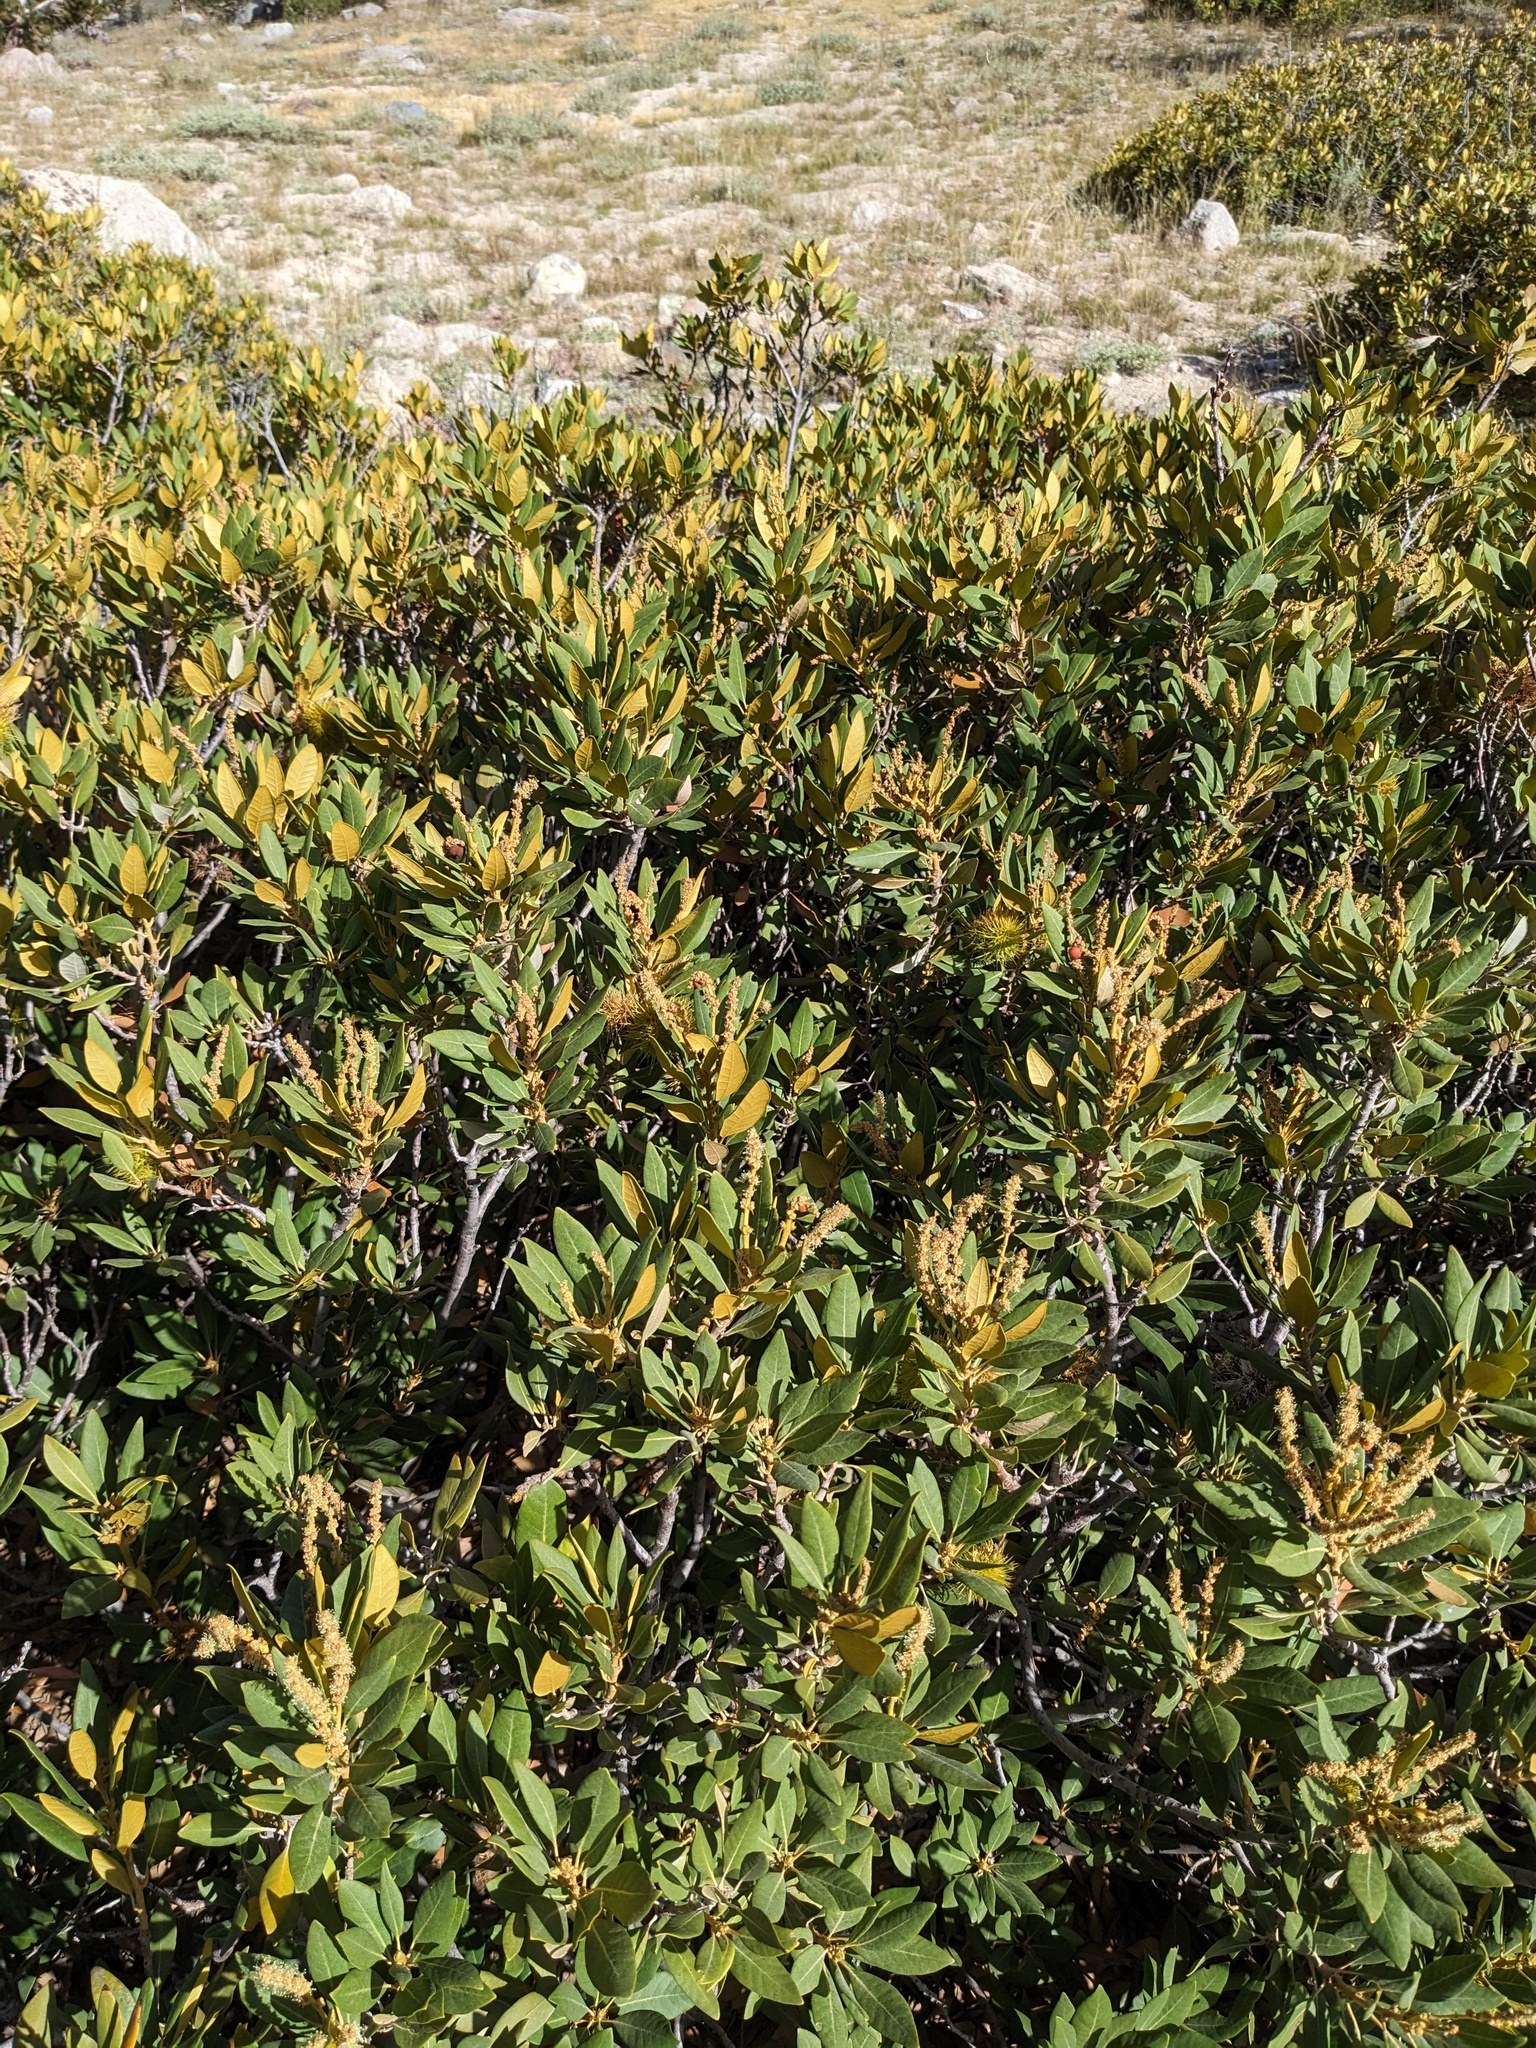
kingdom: Plantae
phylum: Tracheophyta
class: Magnoliopsida
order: Fagales
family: Fagaceae
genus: Chrysolepis
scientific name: Chrysolepis sempervirens
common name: Bush chinquapin
